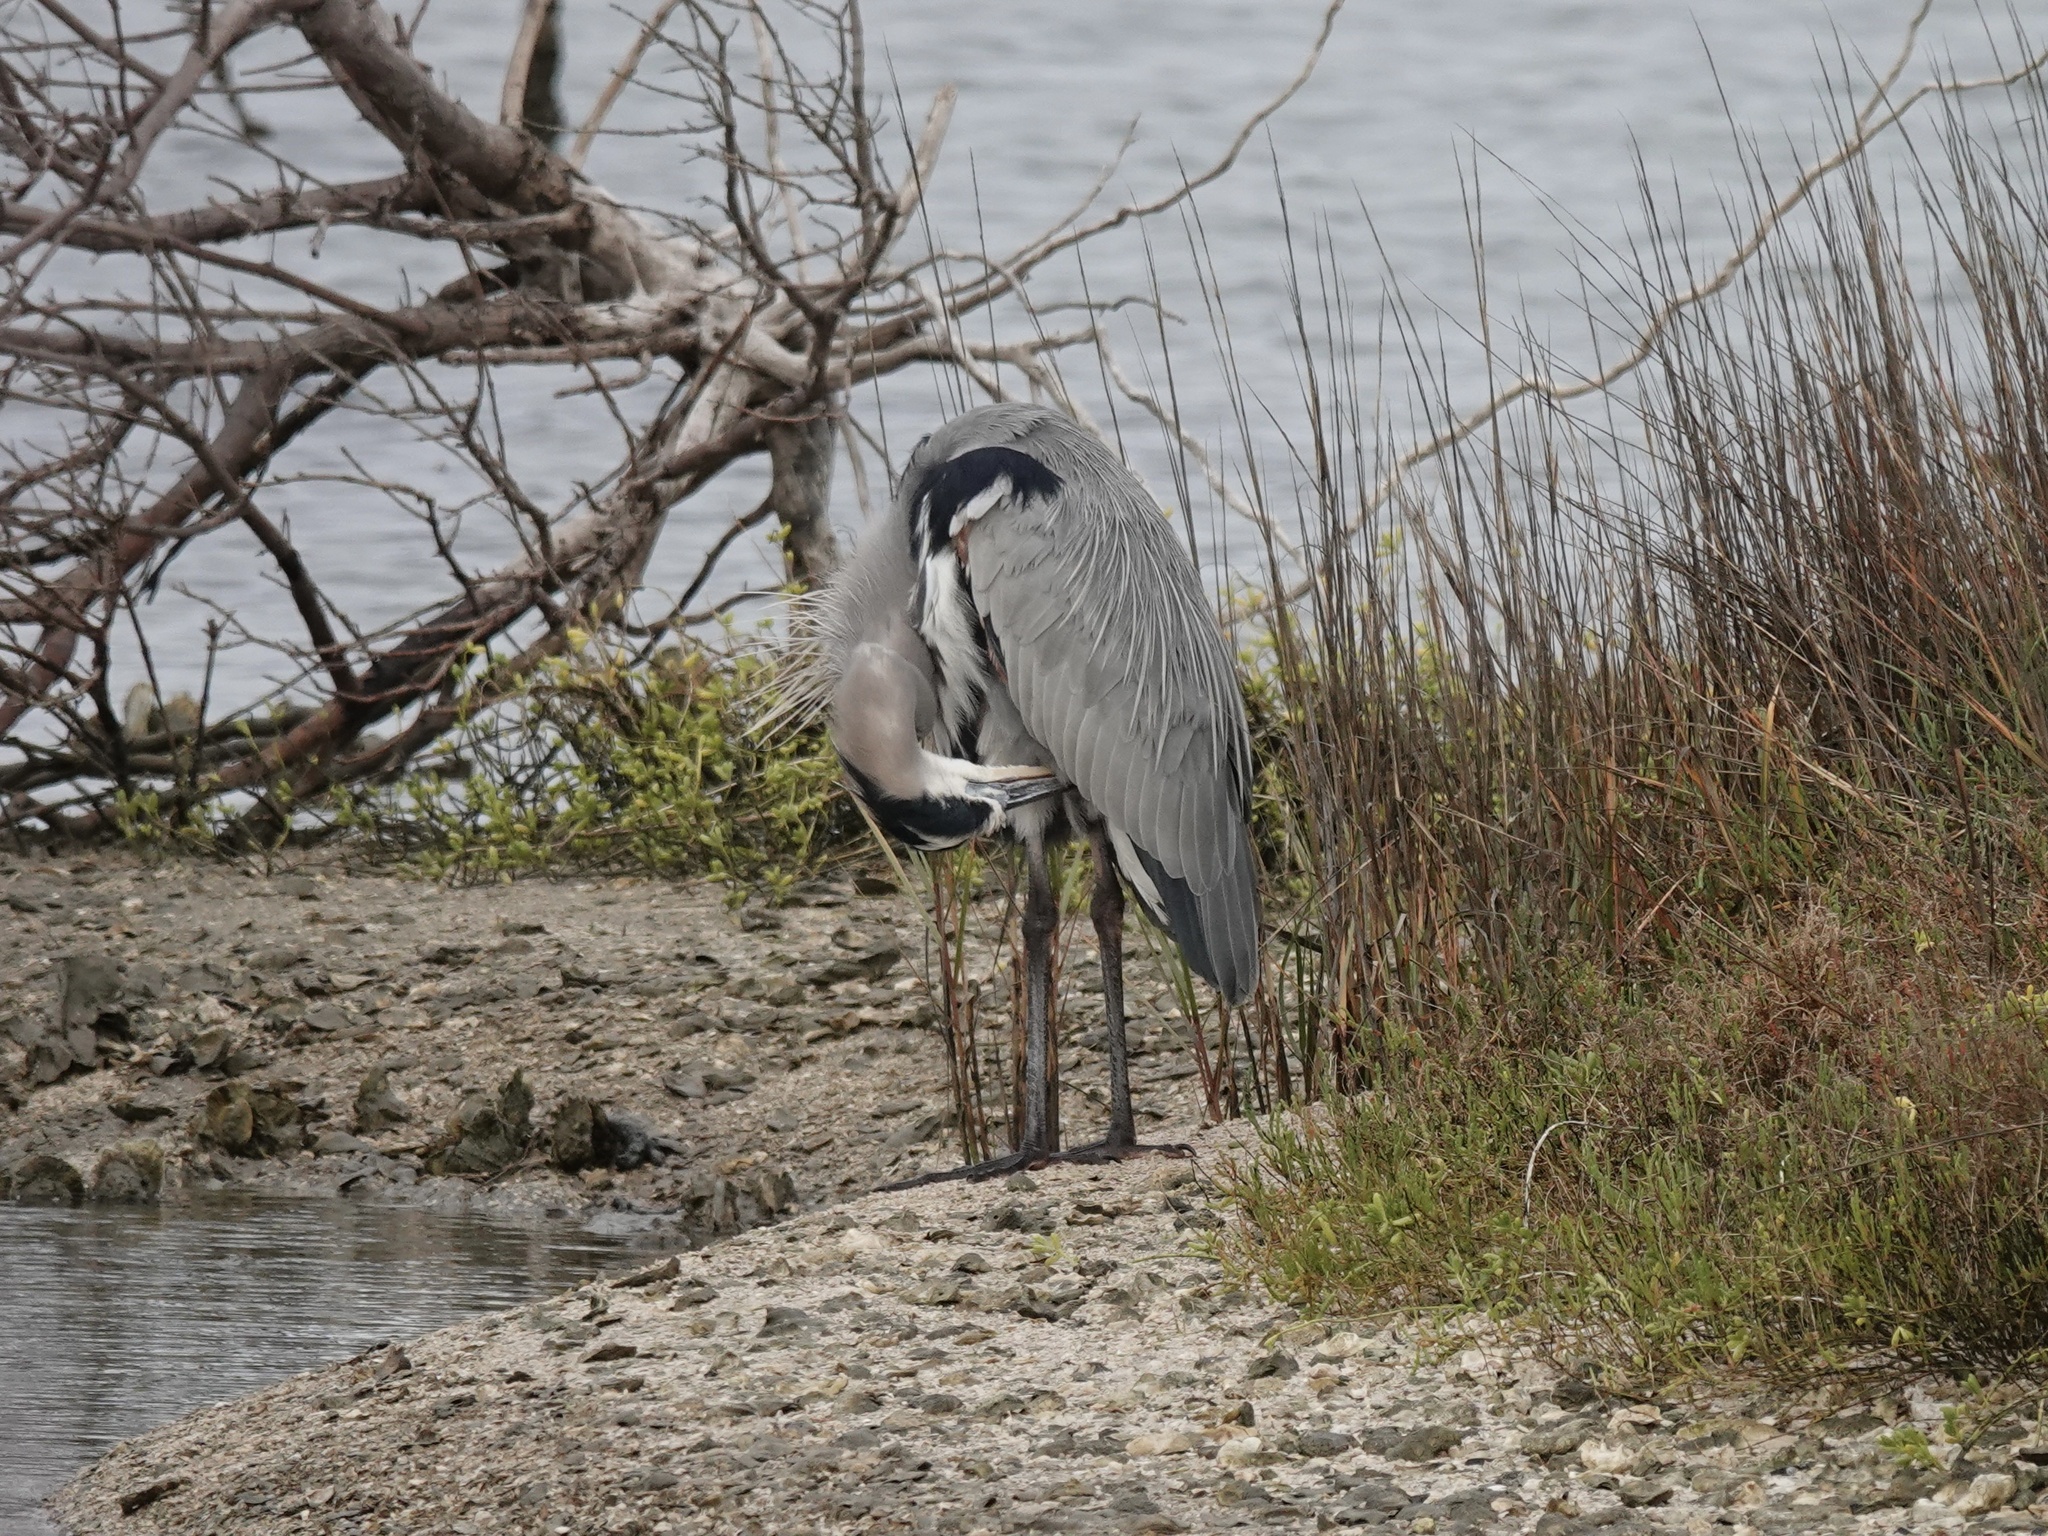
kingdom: Animalia
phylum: Chordata
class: Aves
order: Pelecaniformes
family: Ardeidae
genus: Ardea
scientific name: Ardea herodias
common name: Great blue heron
